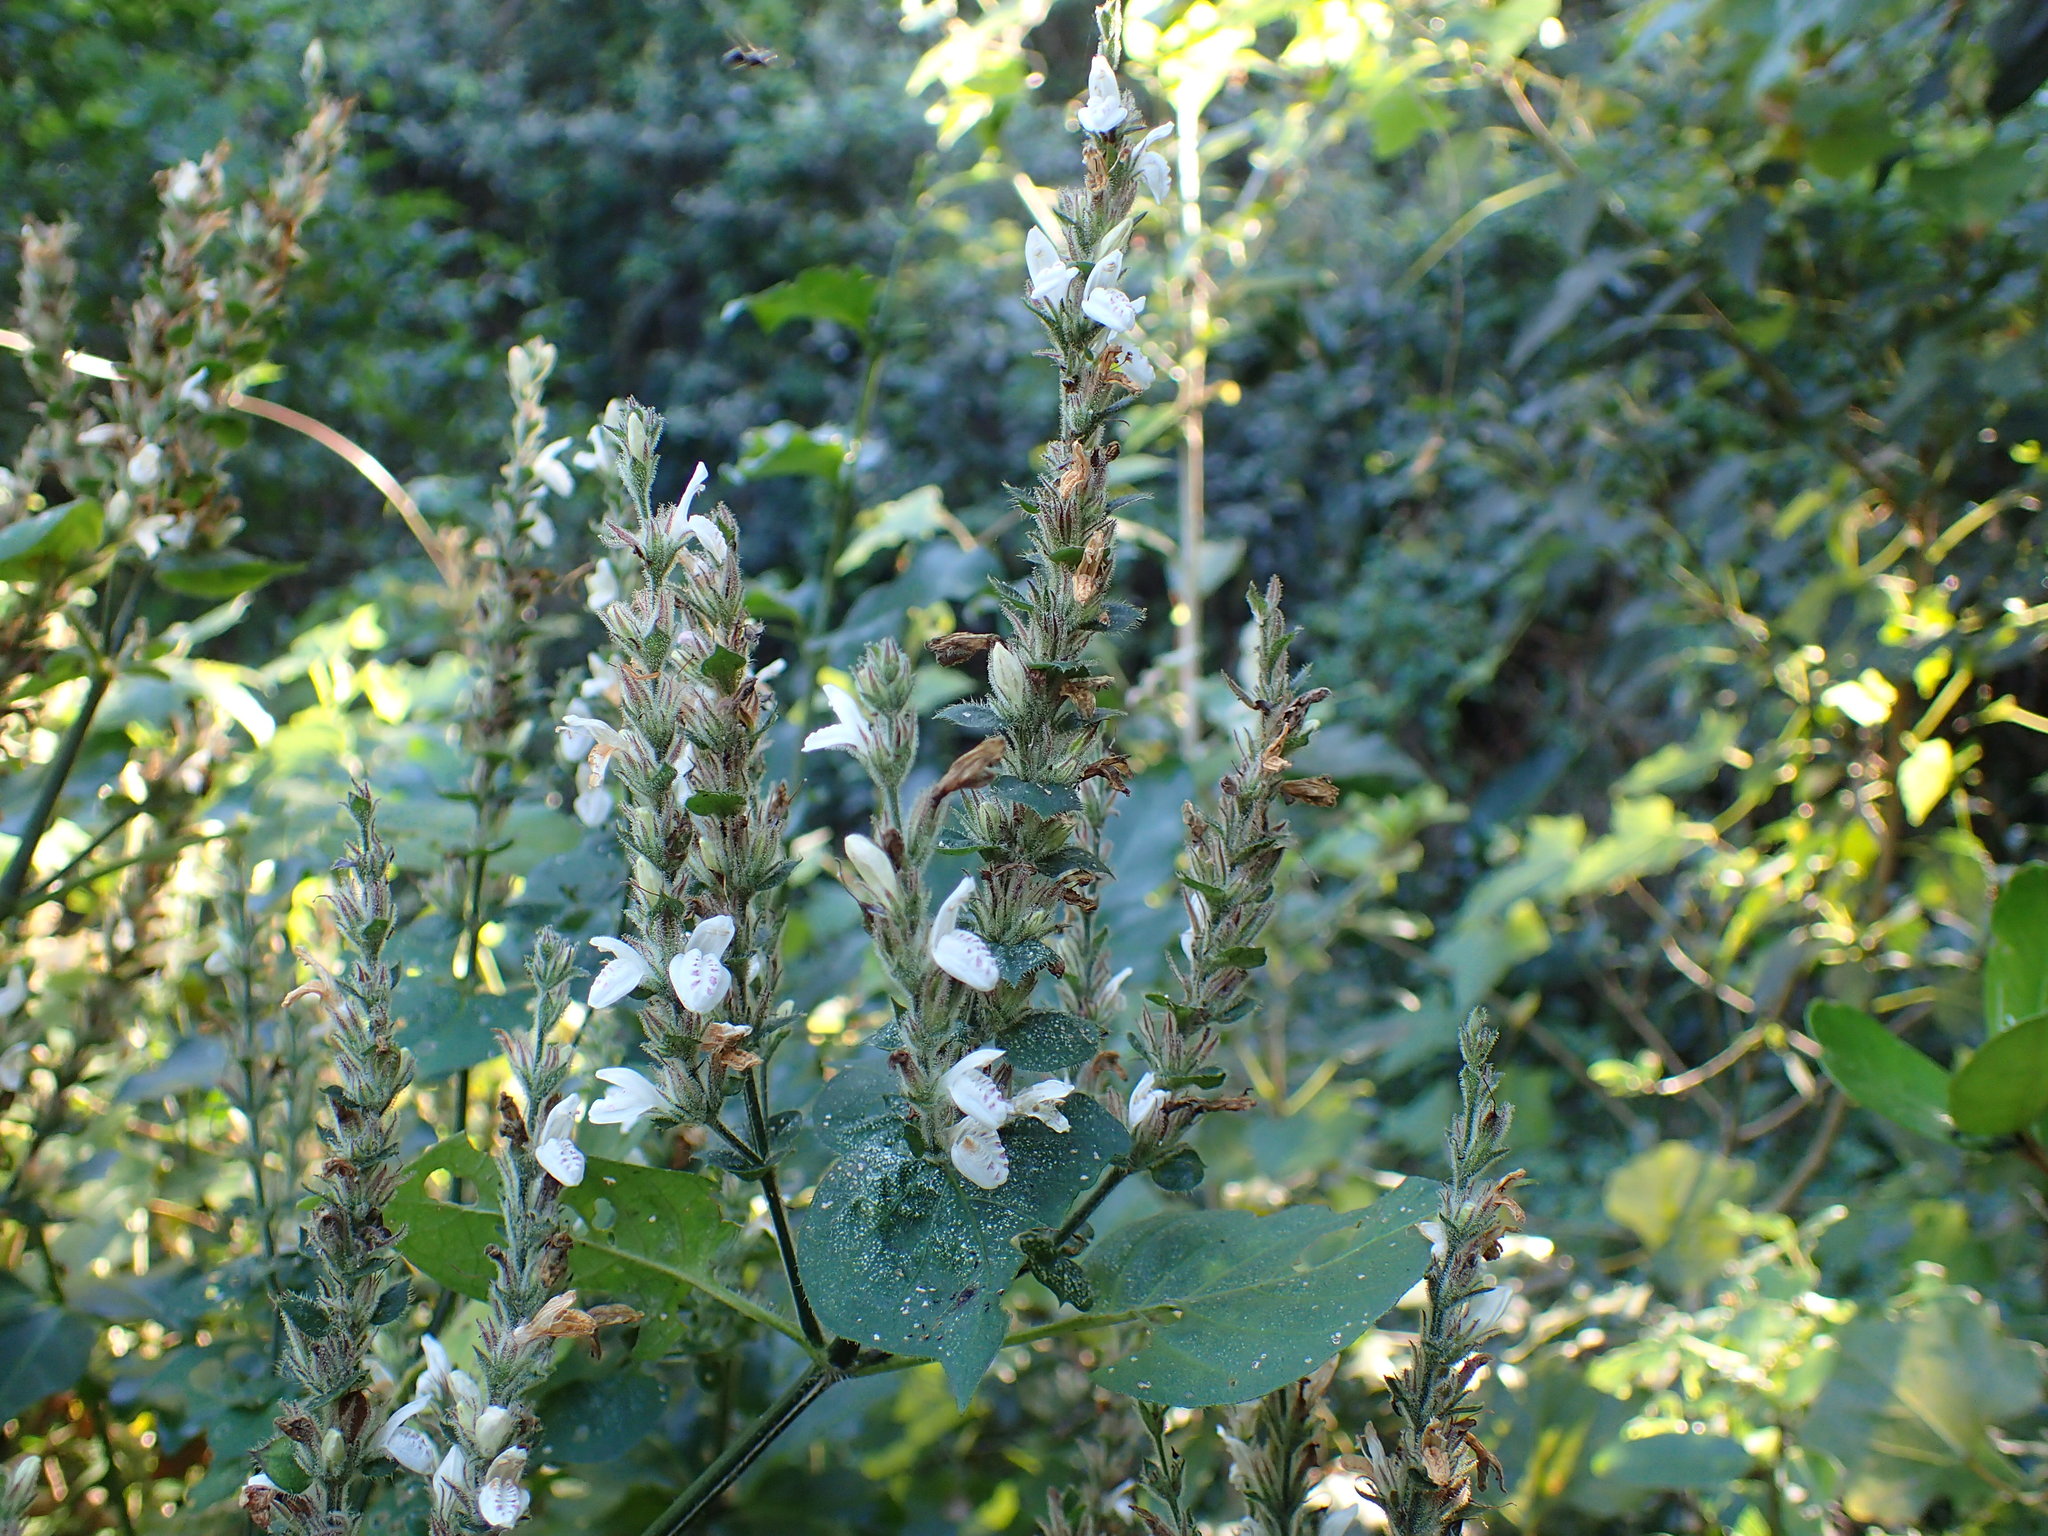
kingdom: Plantae
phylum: Tracheophyta
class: Magnoliopsida
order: Lamiales
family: Acanthaceae
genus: Isoglossa
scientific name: Isoglossa woodii
